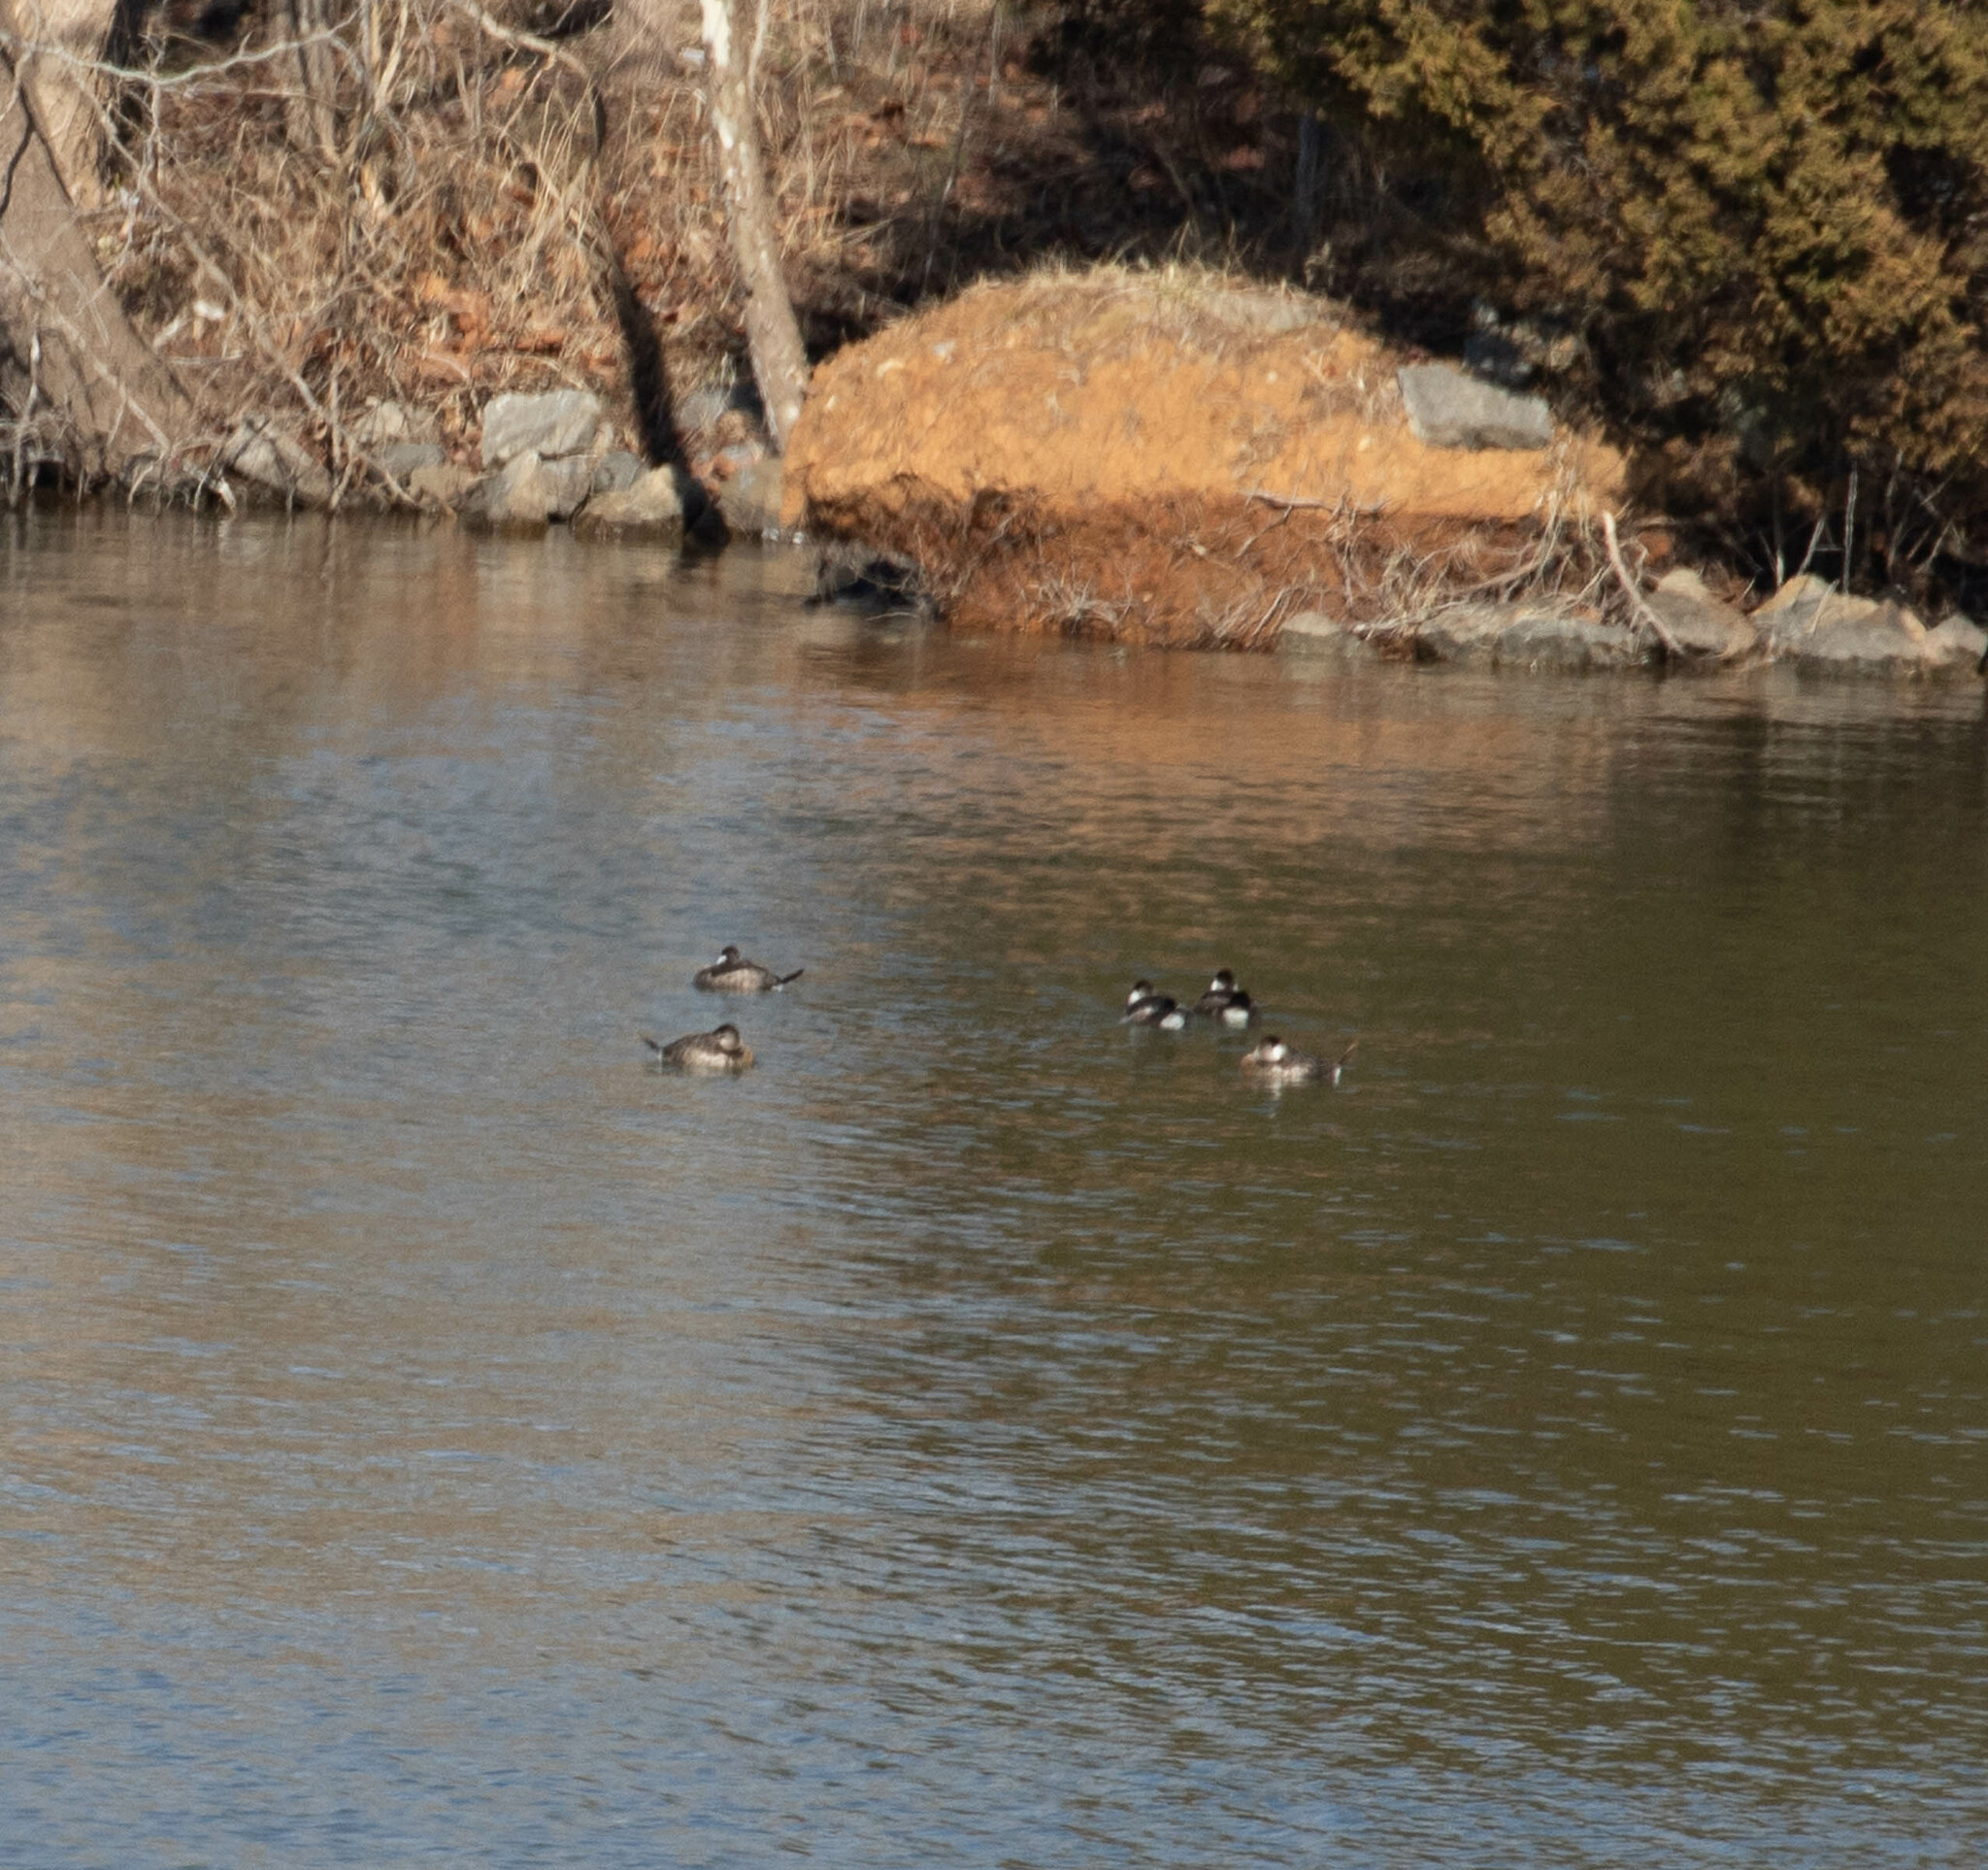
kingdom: Animalia
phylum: Chordata
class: Aves
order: Anseriformes
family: Anatidae
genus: Oxyura
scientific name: Oxyura jamaicensis
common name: Ruddy duck
